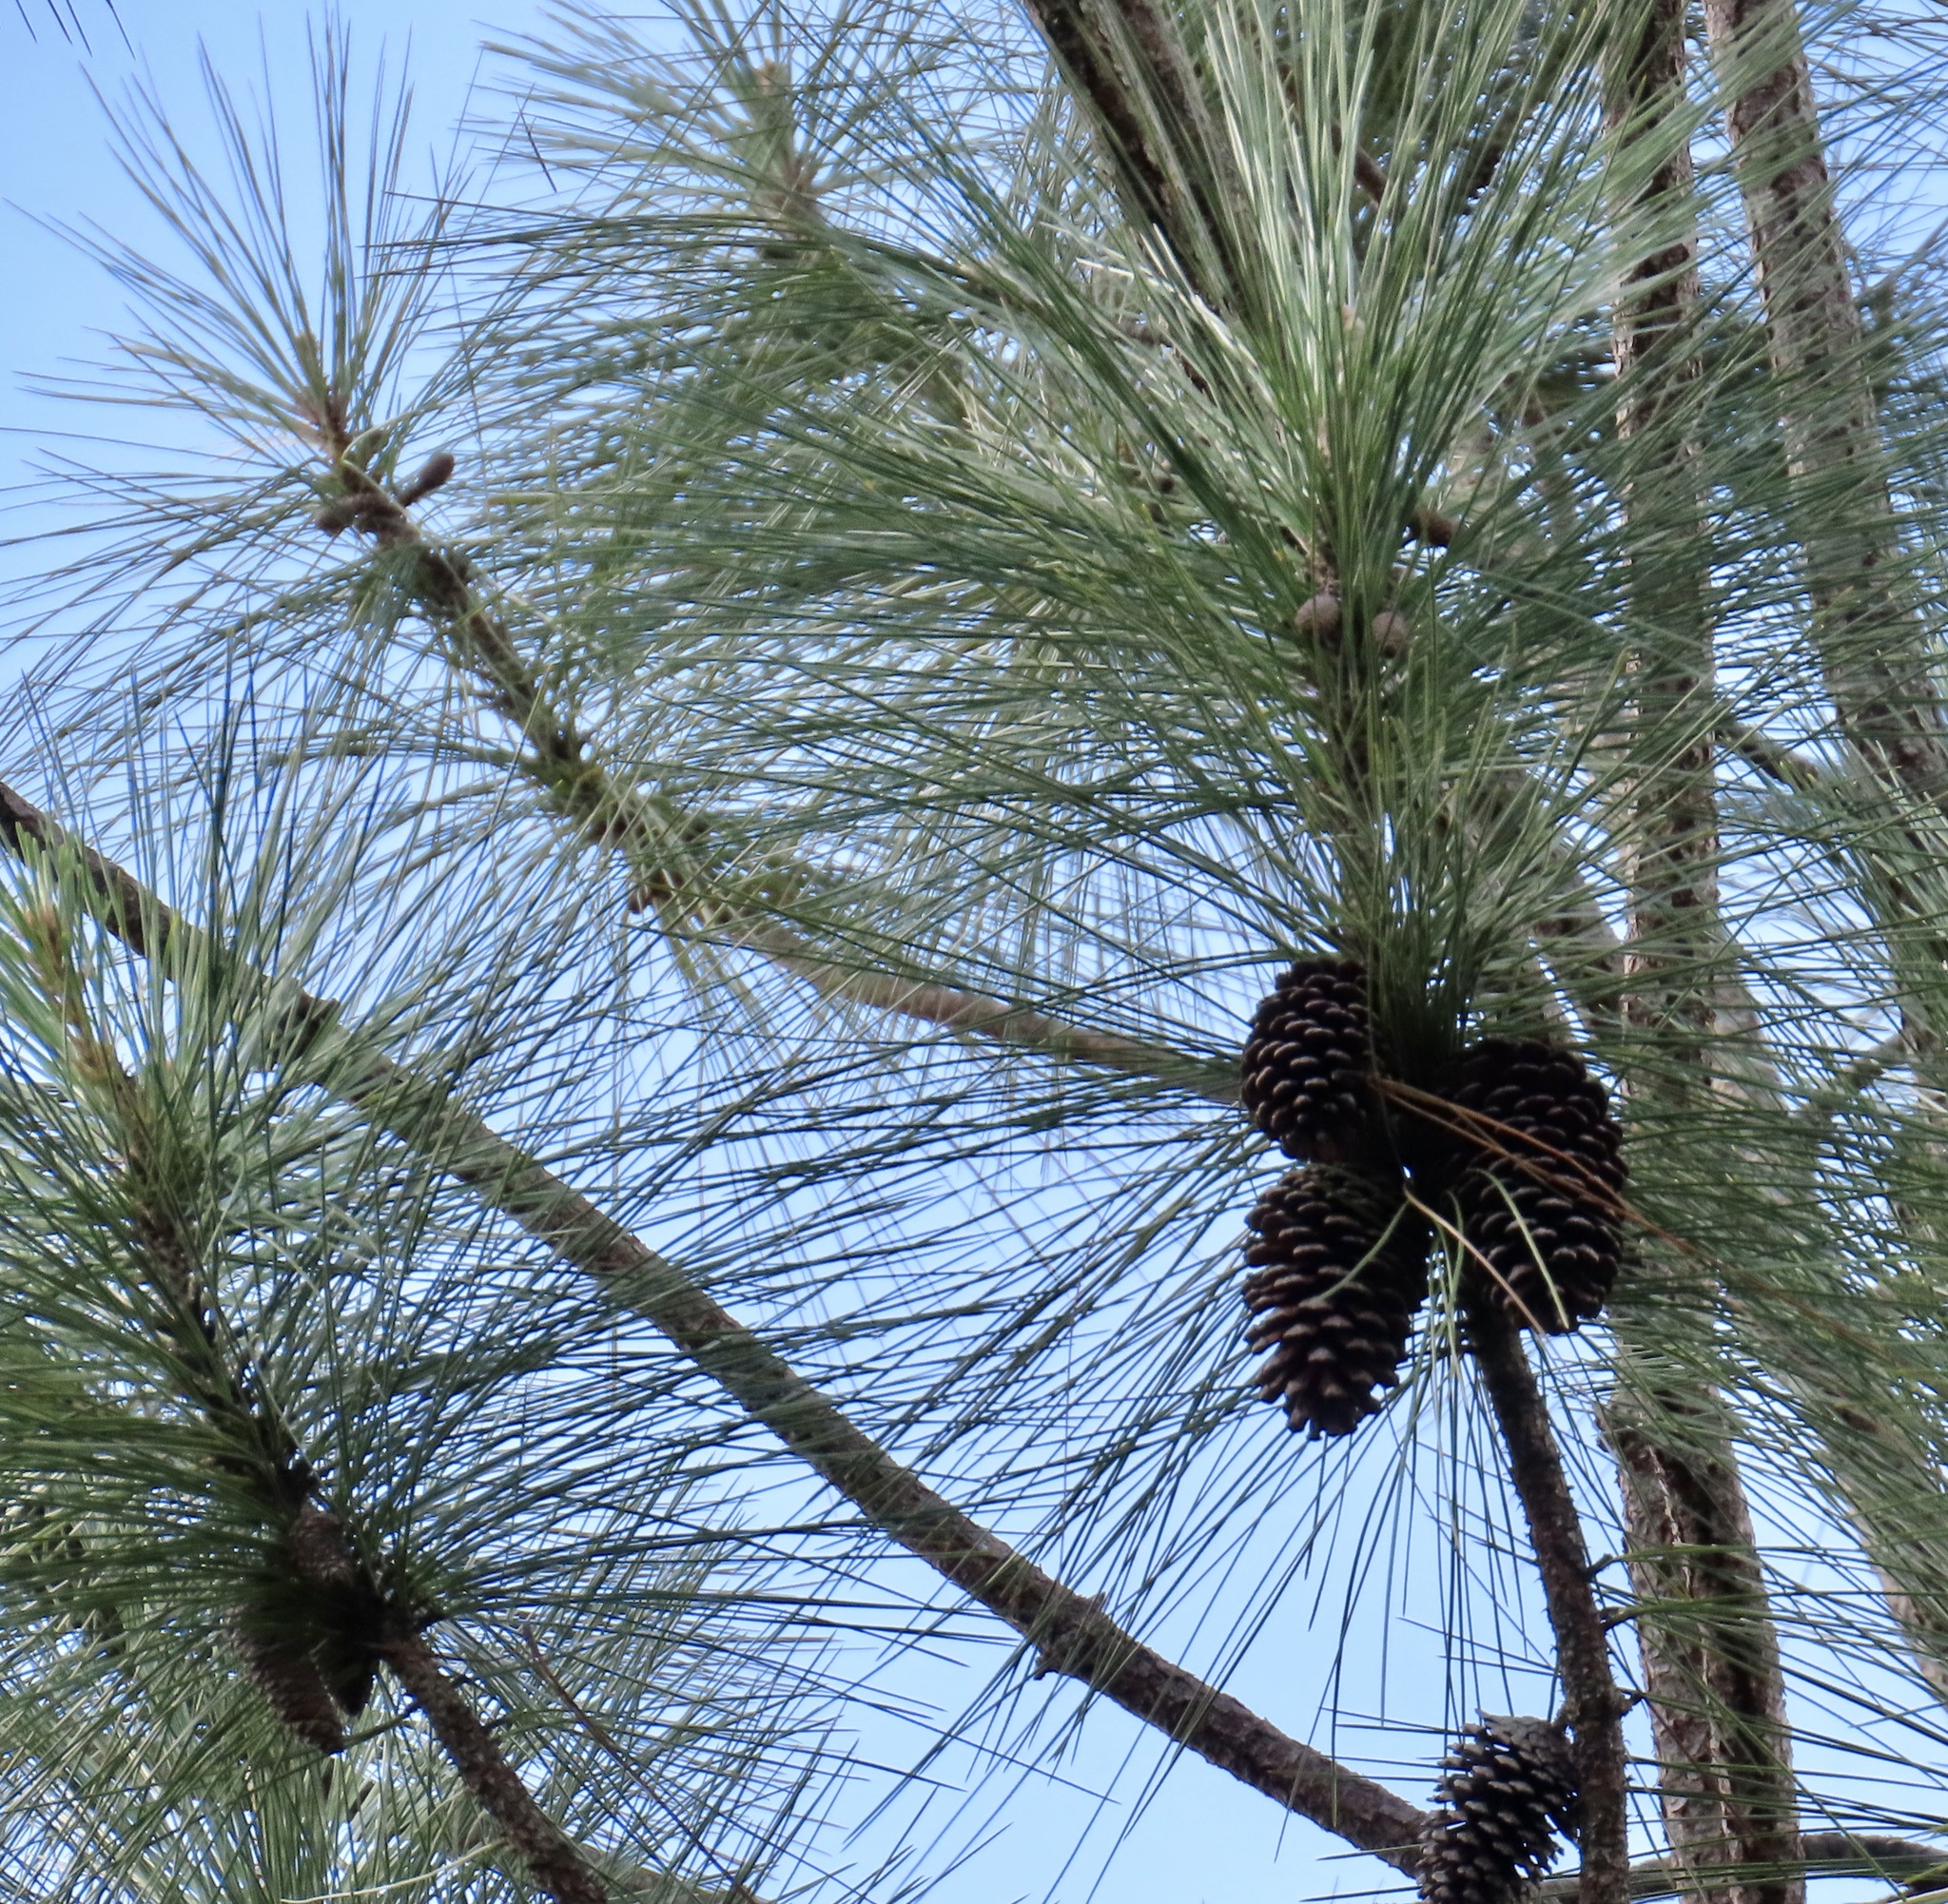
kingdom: Plantae
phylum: Tracheophyta
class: Pinopsida
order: Pinales
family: Pinaceae
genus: Pinus
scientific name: Pinus caribaea
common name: Caribbean pine
